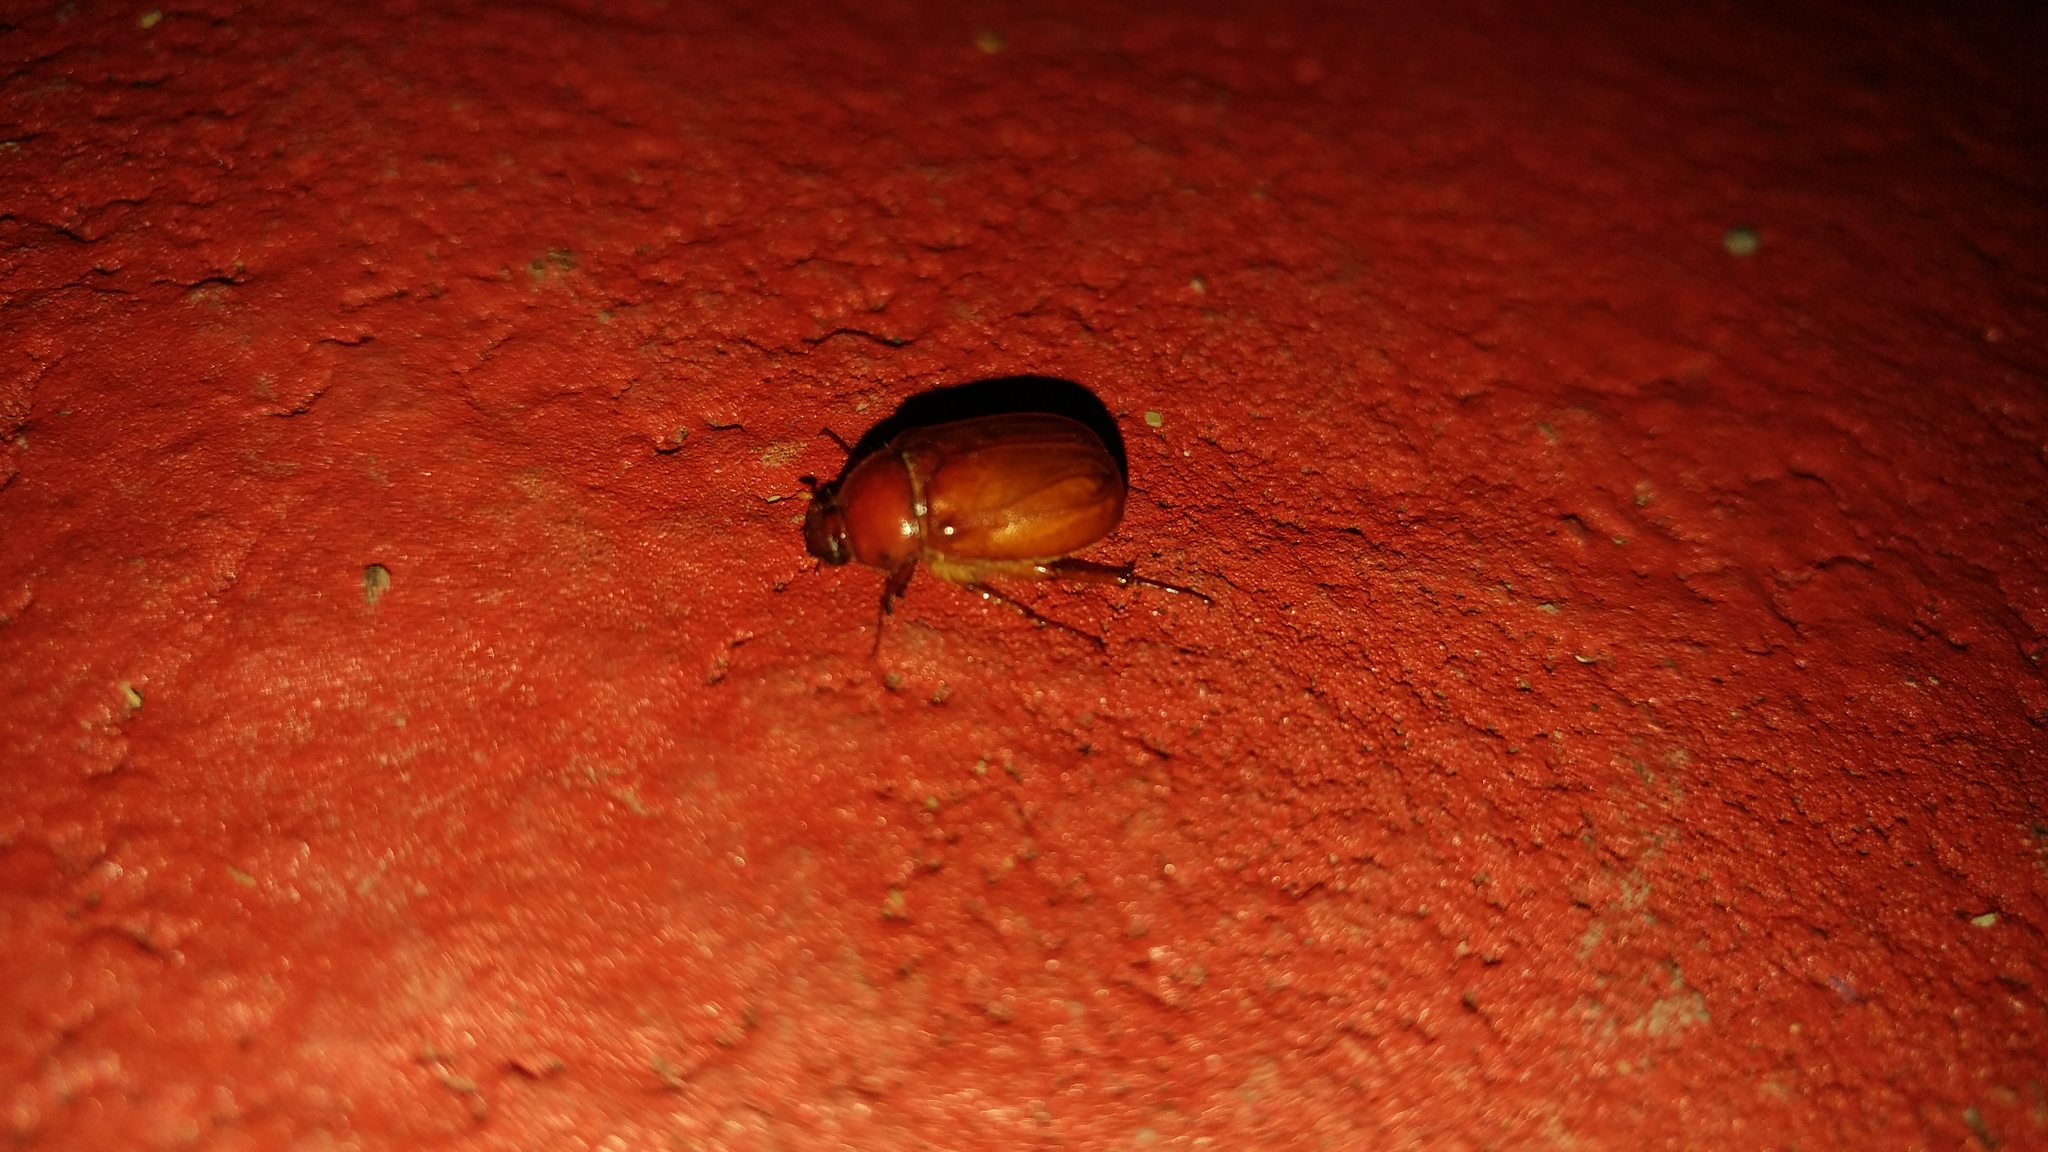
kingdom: Animalia
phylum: Arthropoda
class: Insecta
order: Coleoptera
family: Scarabaeidae
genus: Phyllophaga
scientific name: Phyllophaga crinita
